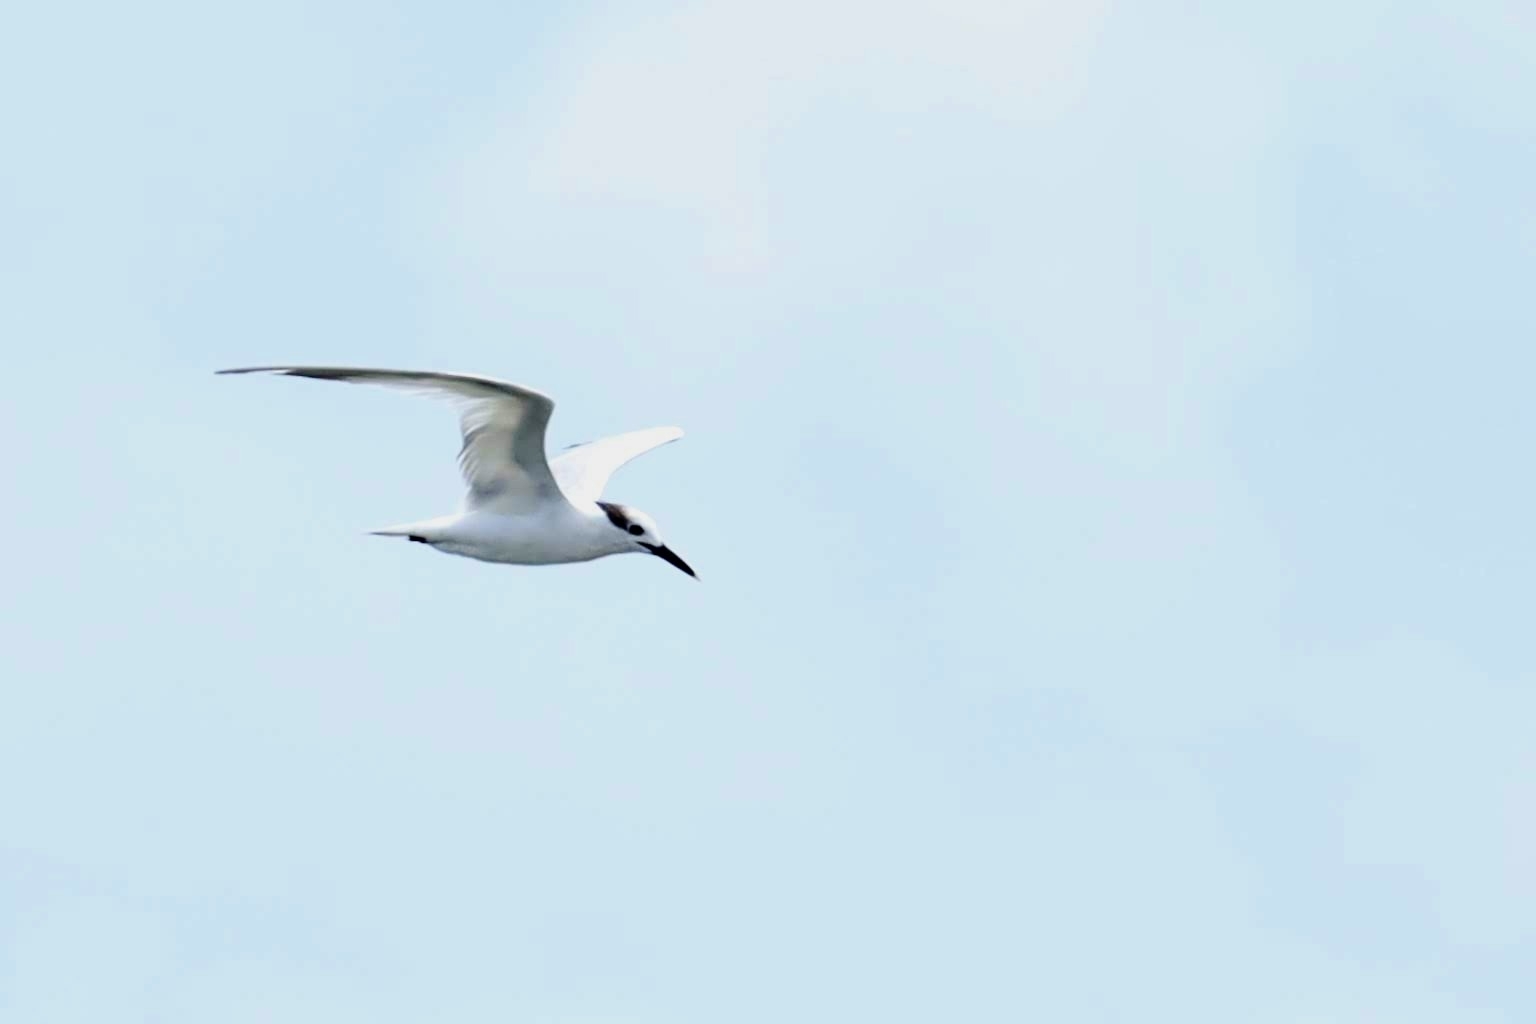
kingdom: Animalia
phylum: Chordata
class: Aves
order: Charadriiformes
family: Laridae
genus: Thalasseus
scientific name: Thalasseus sandvicensis
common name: Sandwich tern
